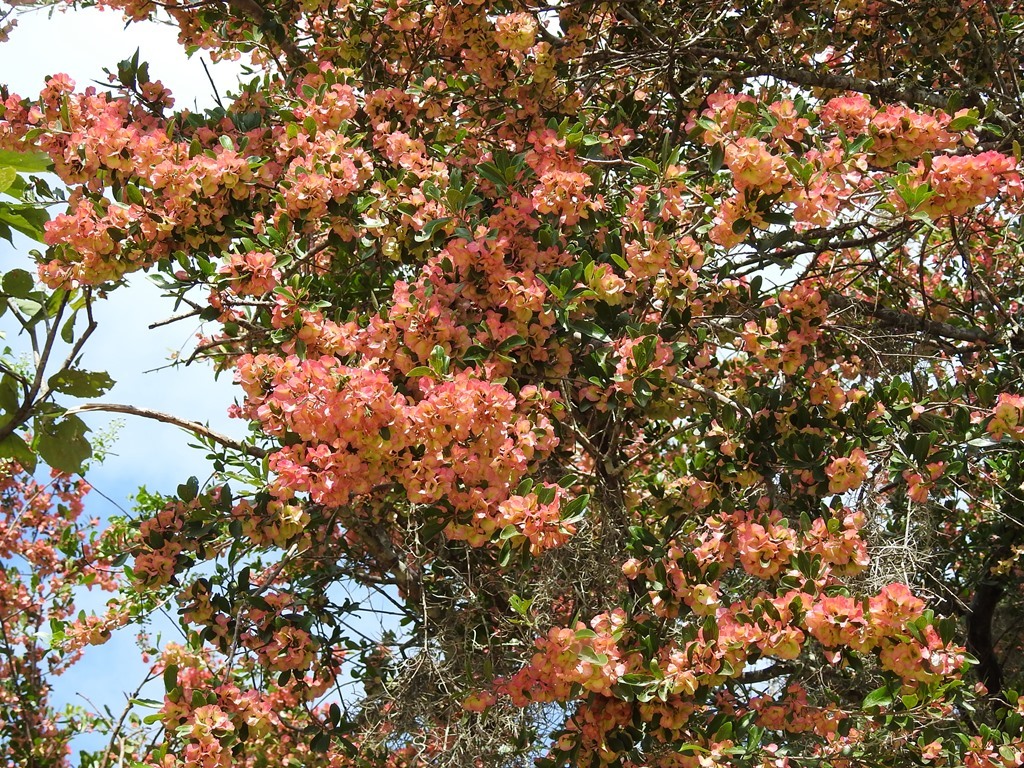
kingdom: Plantae
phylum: Tracheophyta
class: Magnoliopsida
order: Celastrales
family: Celastraceae
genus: Wimmeria
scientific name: Wimmeria microphylla
